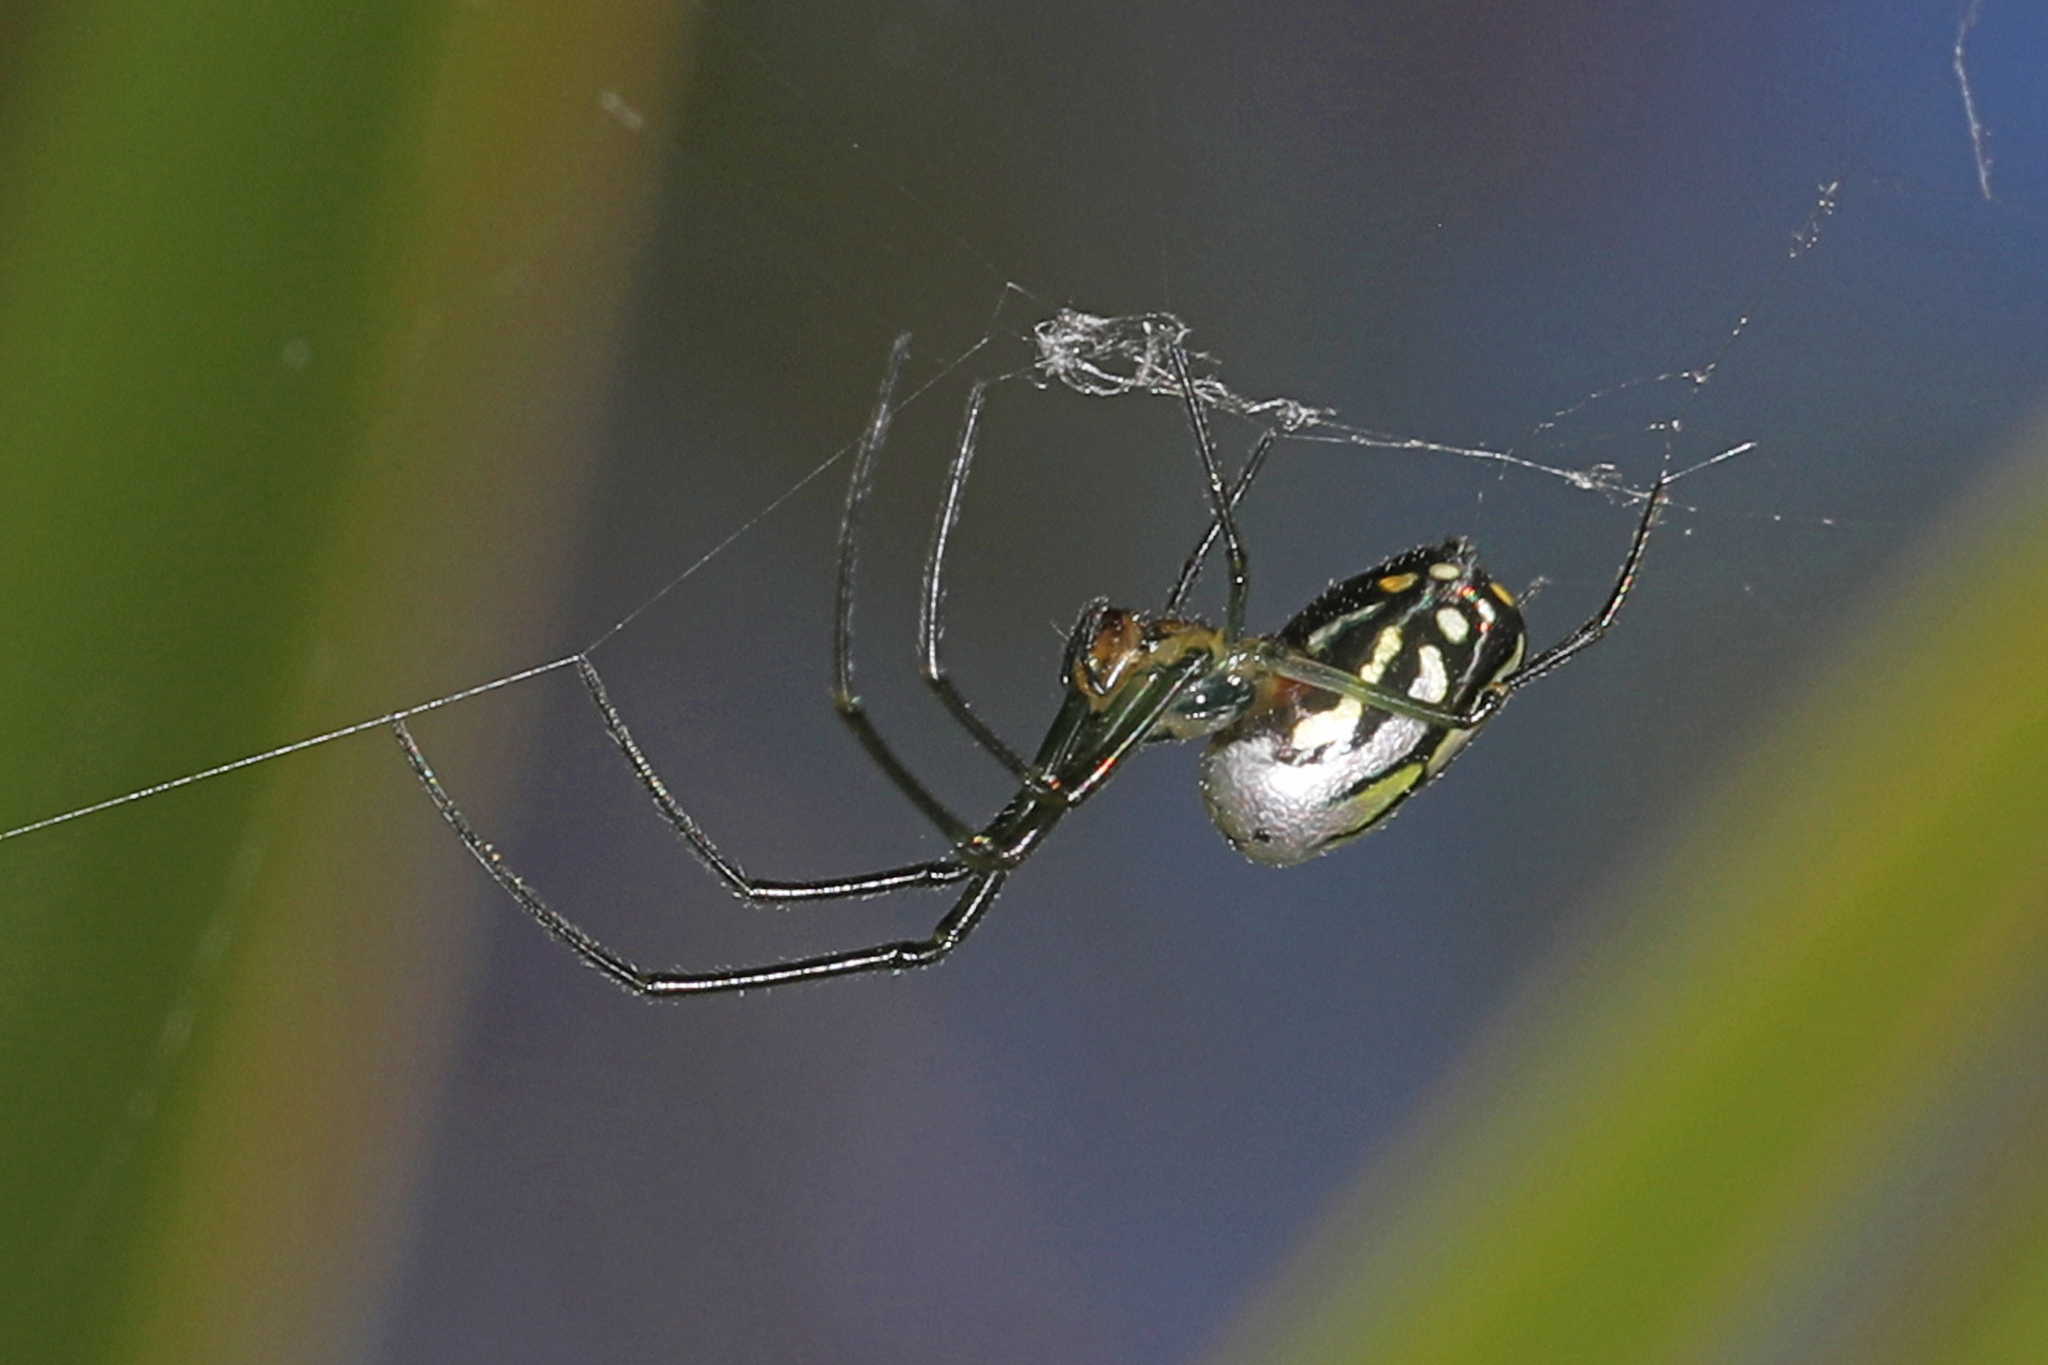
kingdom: Animalia
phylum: Arthropoda
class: Arachnida
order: Araneae
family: Tetragnathidae
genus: Leucauge
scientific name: Leucauge argyra
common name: Longjawed orb weavers
